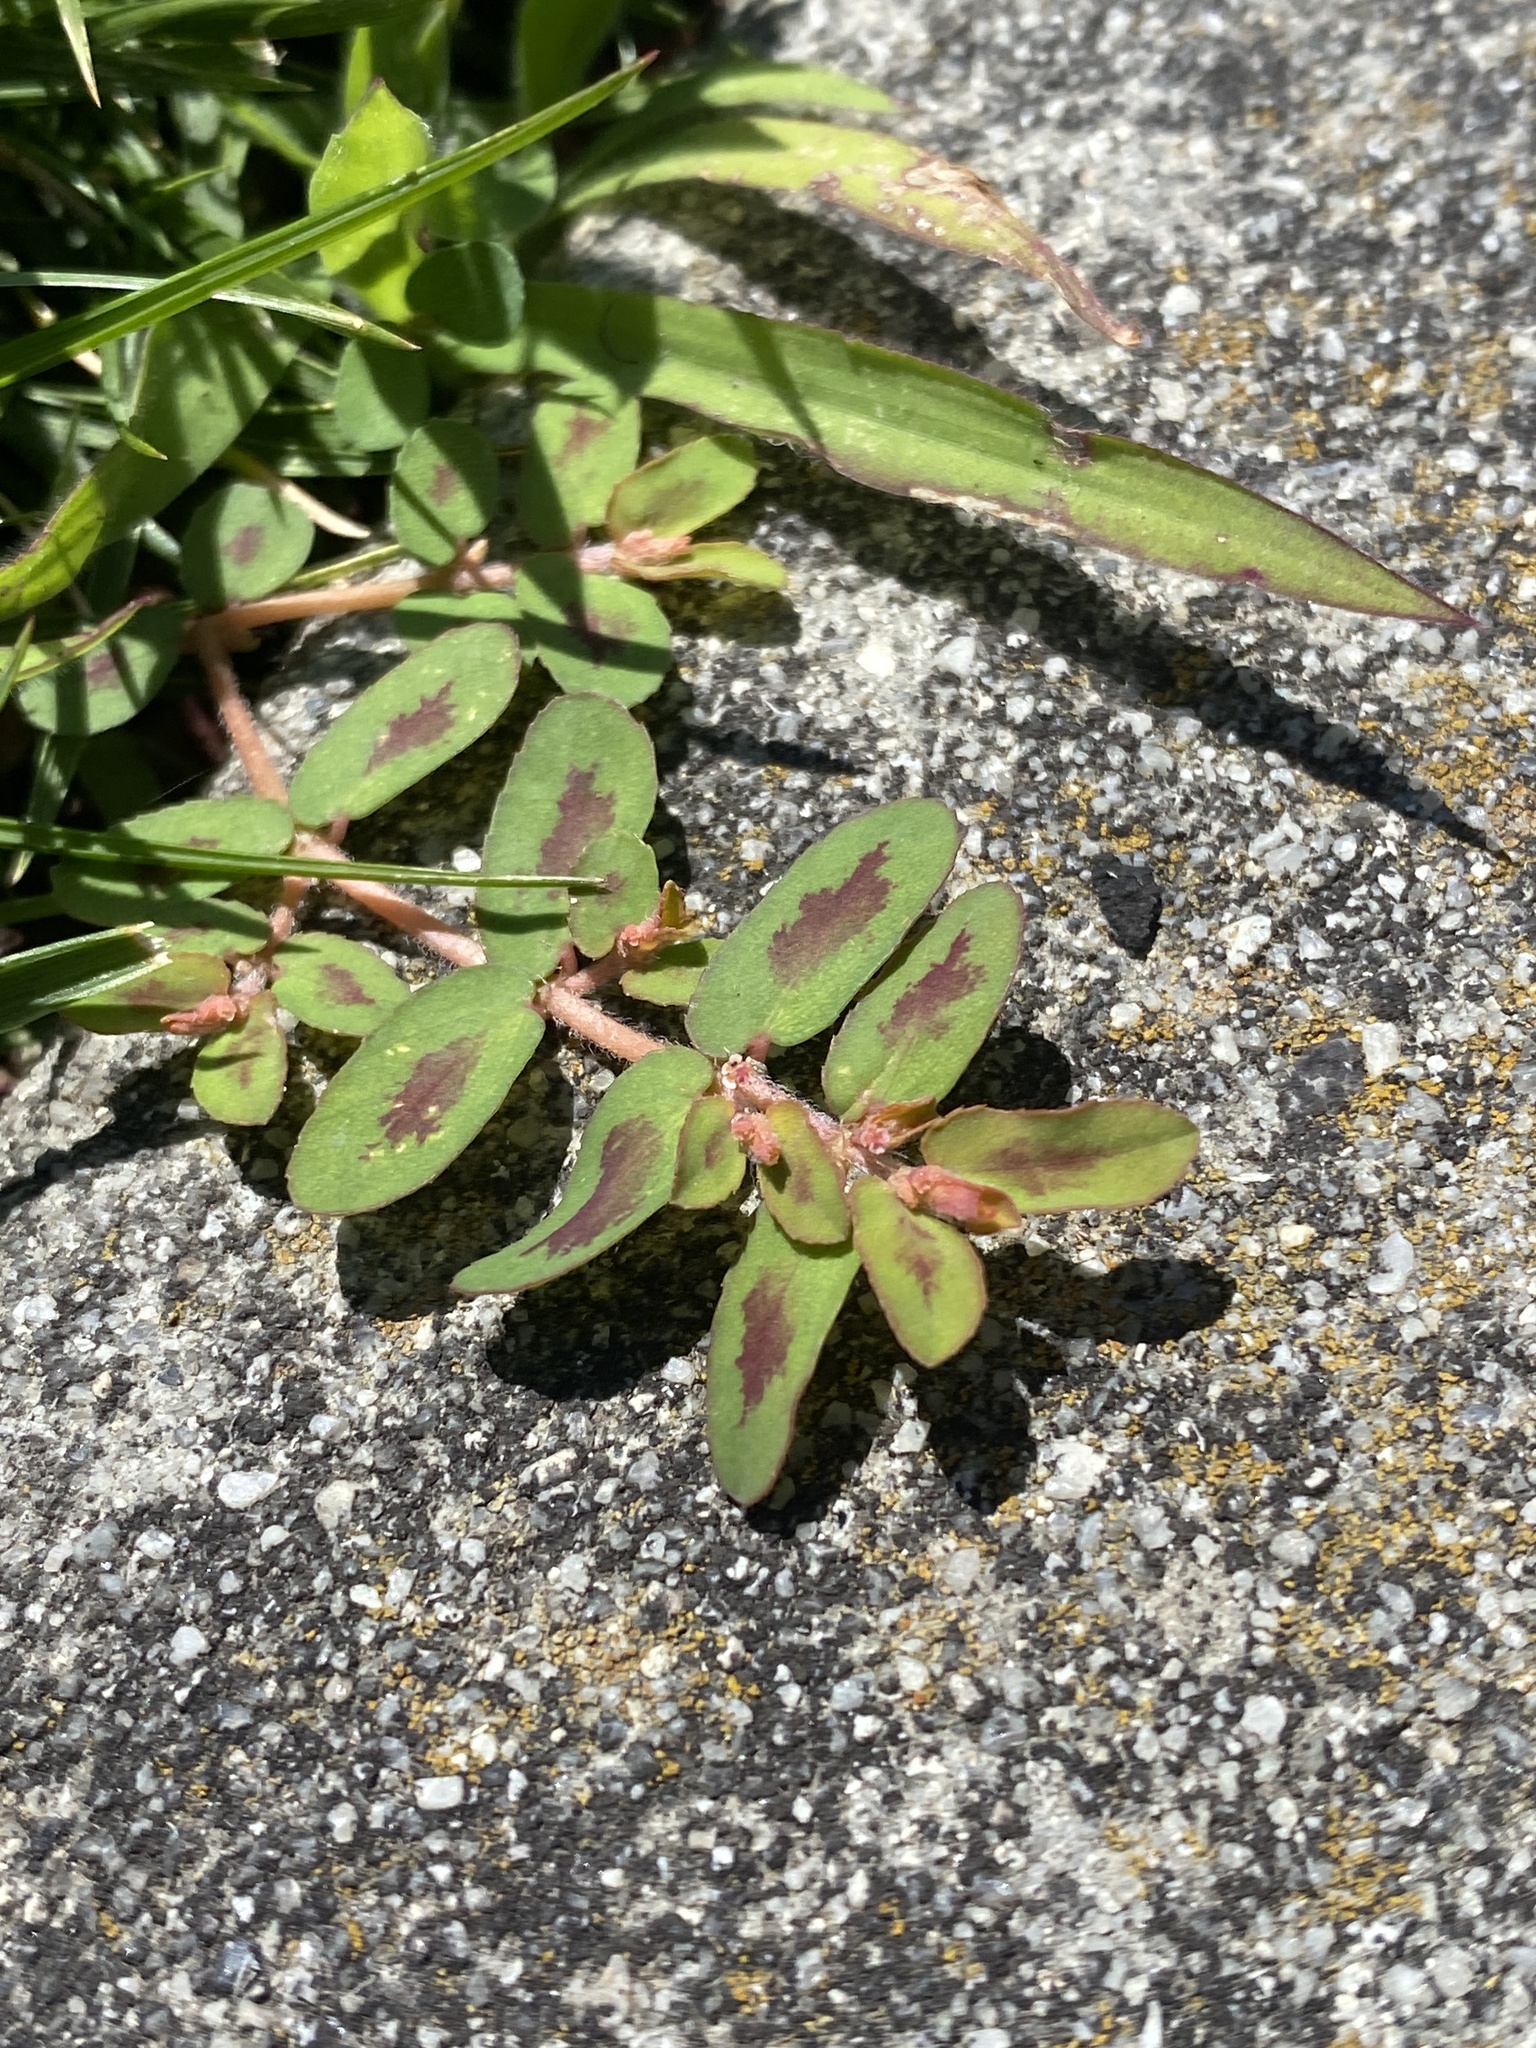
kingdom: Plantae
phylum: Tracheophyta
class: Magnoliopsida
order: Malpighiales
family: Euphorbiaceae
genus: Euphorbia
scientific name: Euphorbia maculata
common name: Spotted spurge
